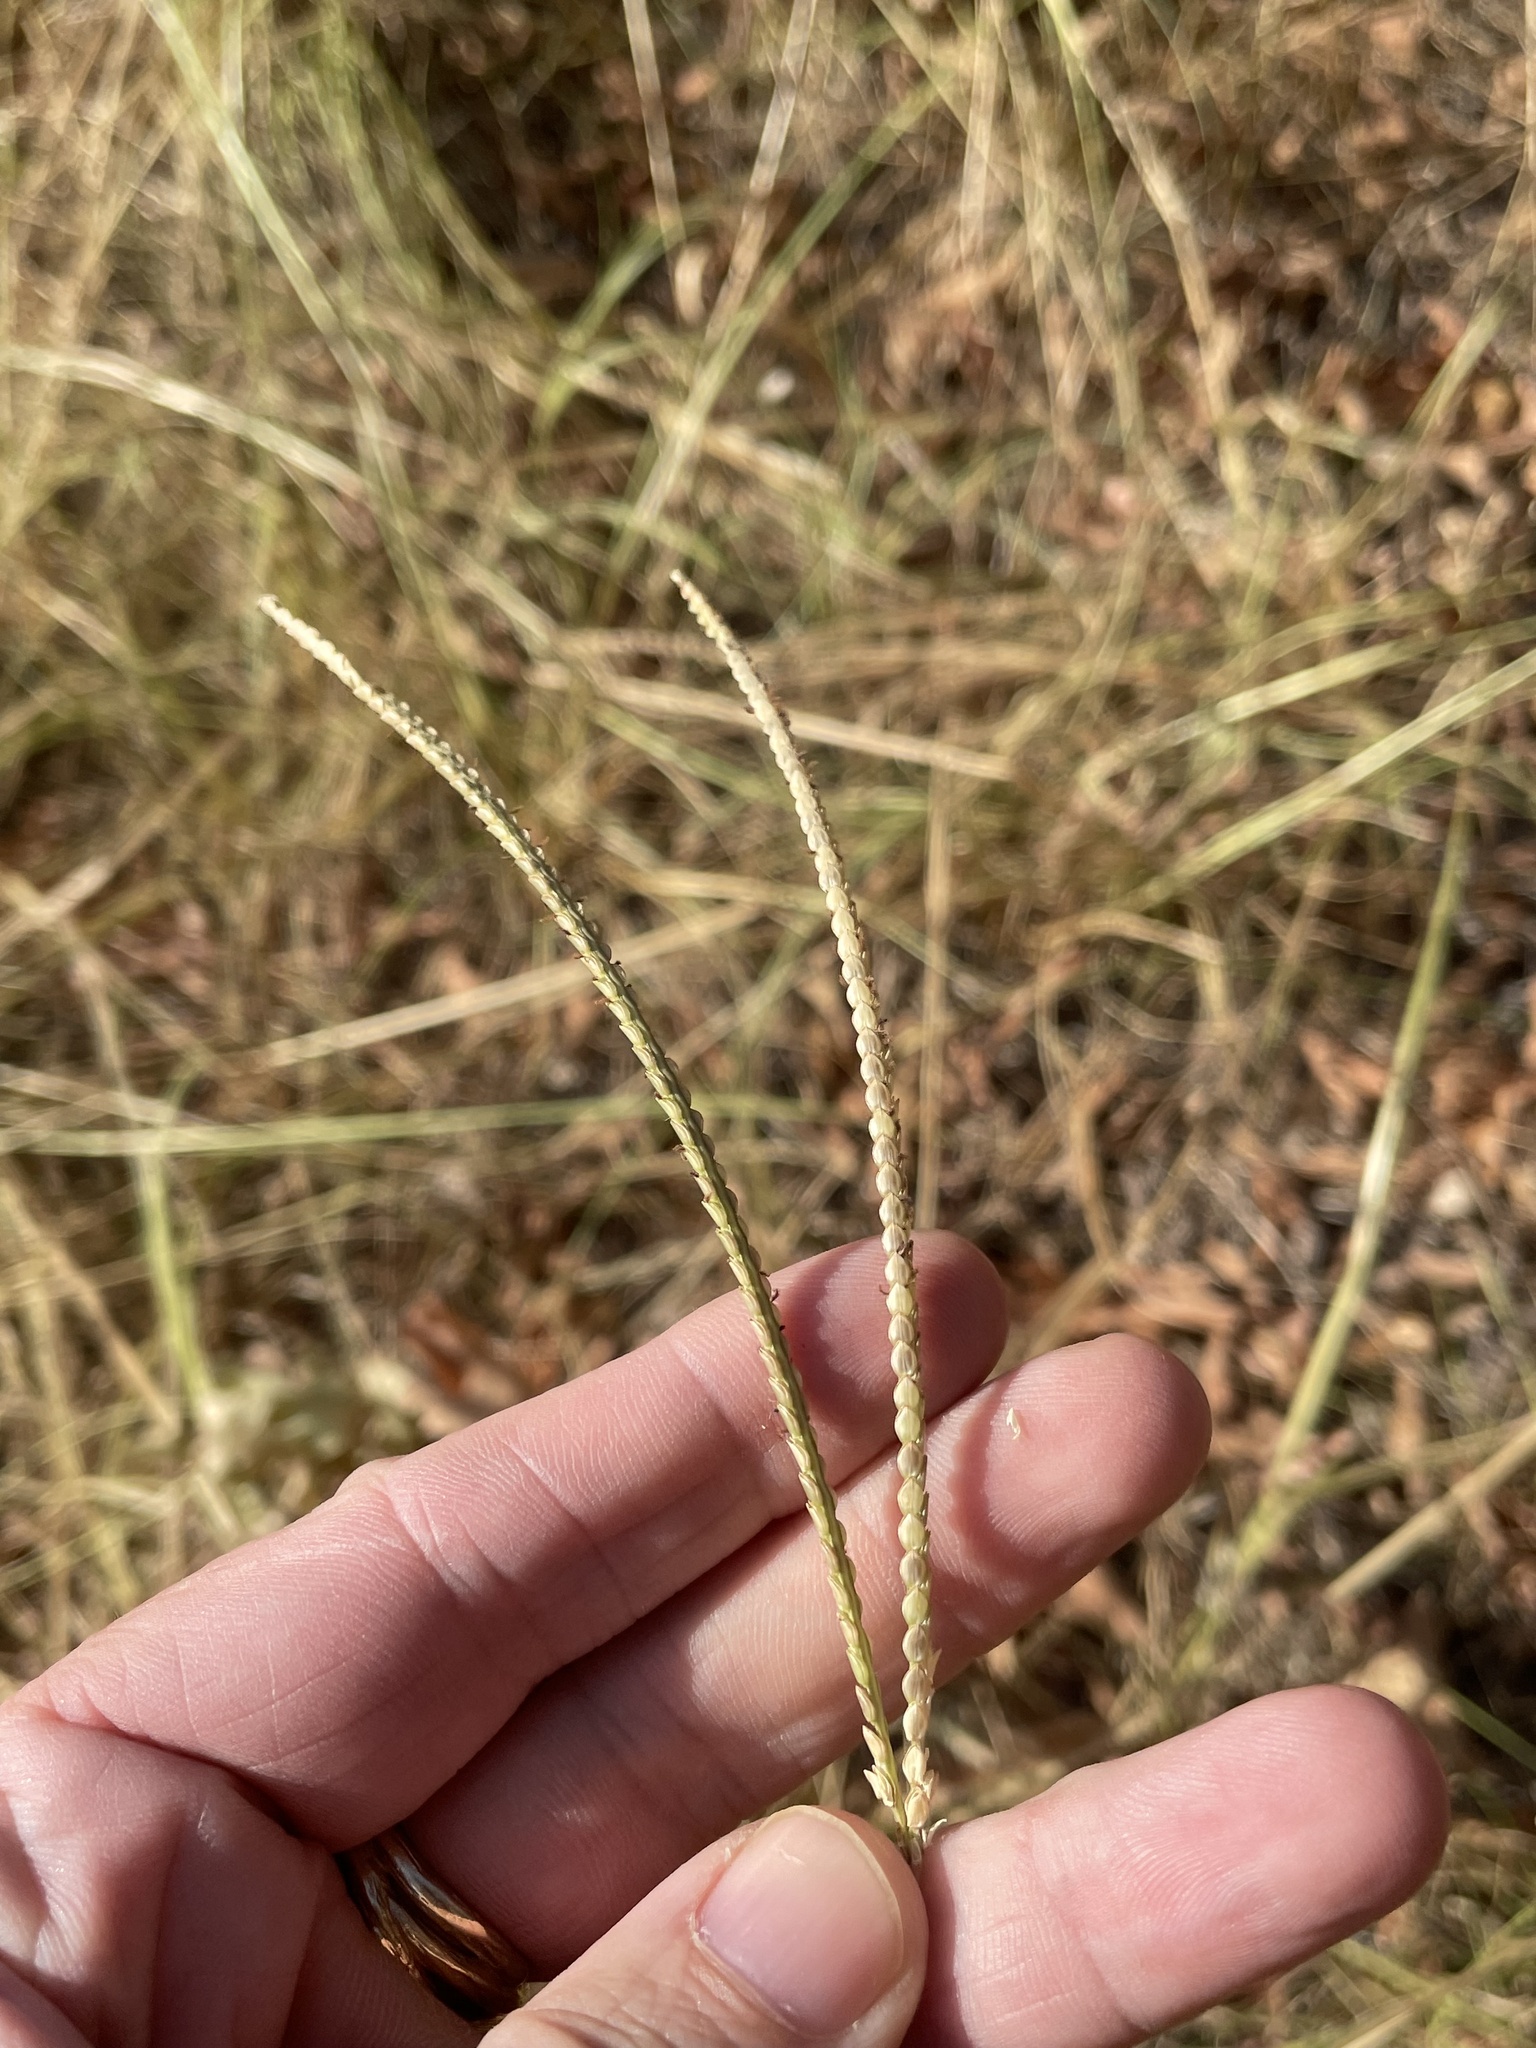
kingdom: Plantae
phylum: Tracheophyta
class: Liliopsida
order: Poales
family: Poaceae
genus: Paspalum
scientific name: Paspalum notatum
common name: Bahiagrass
